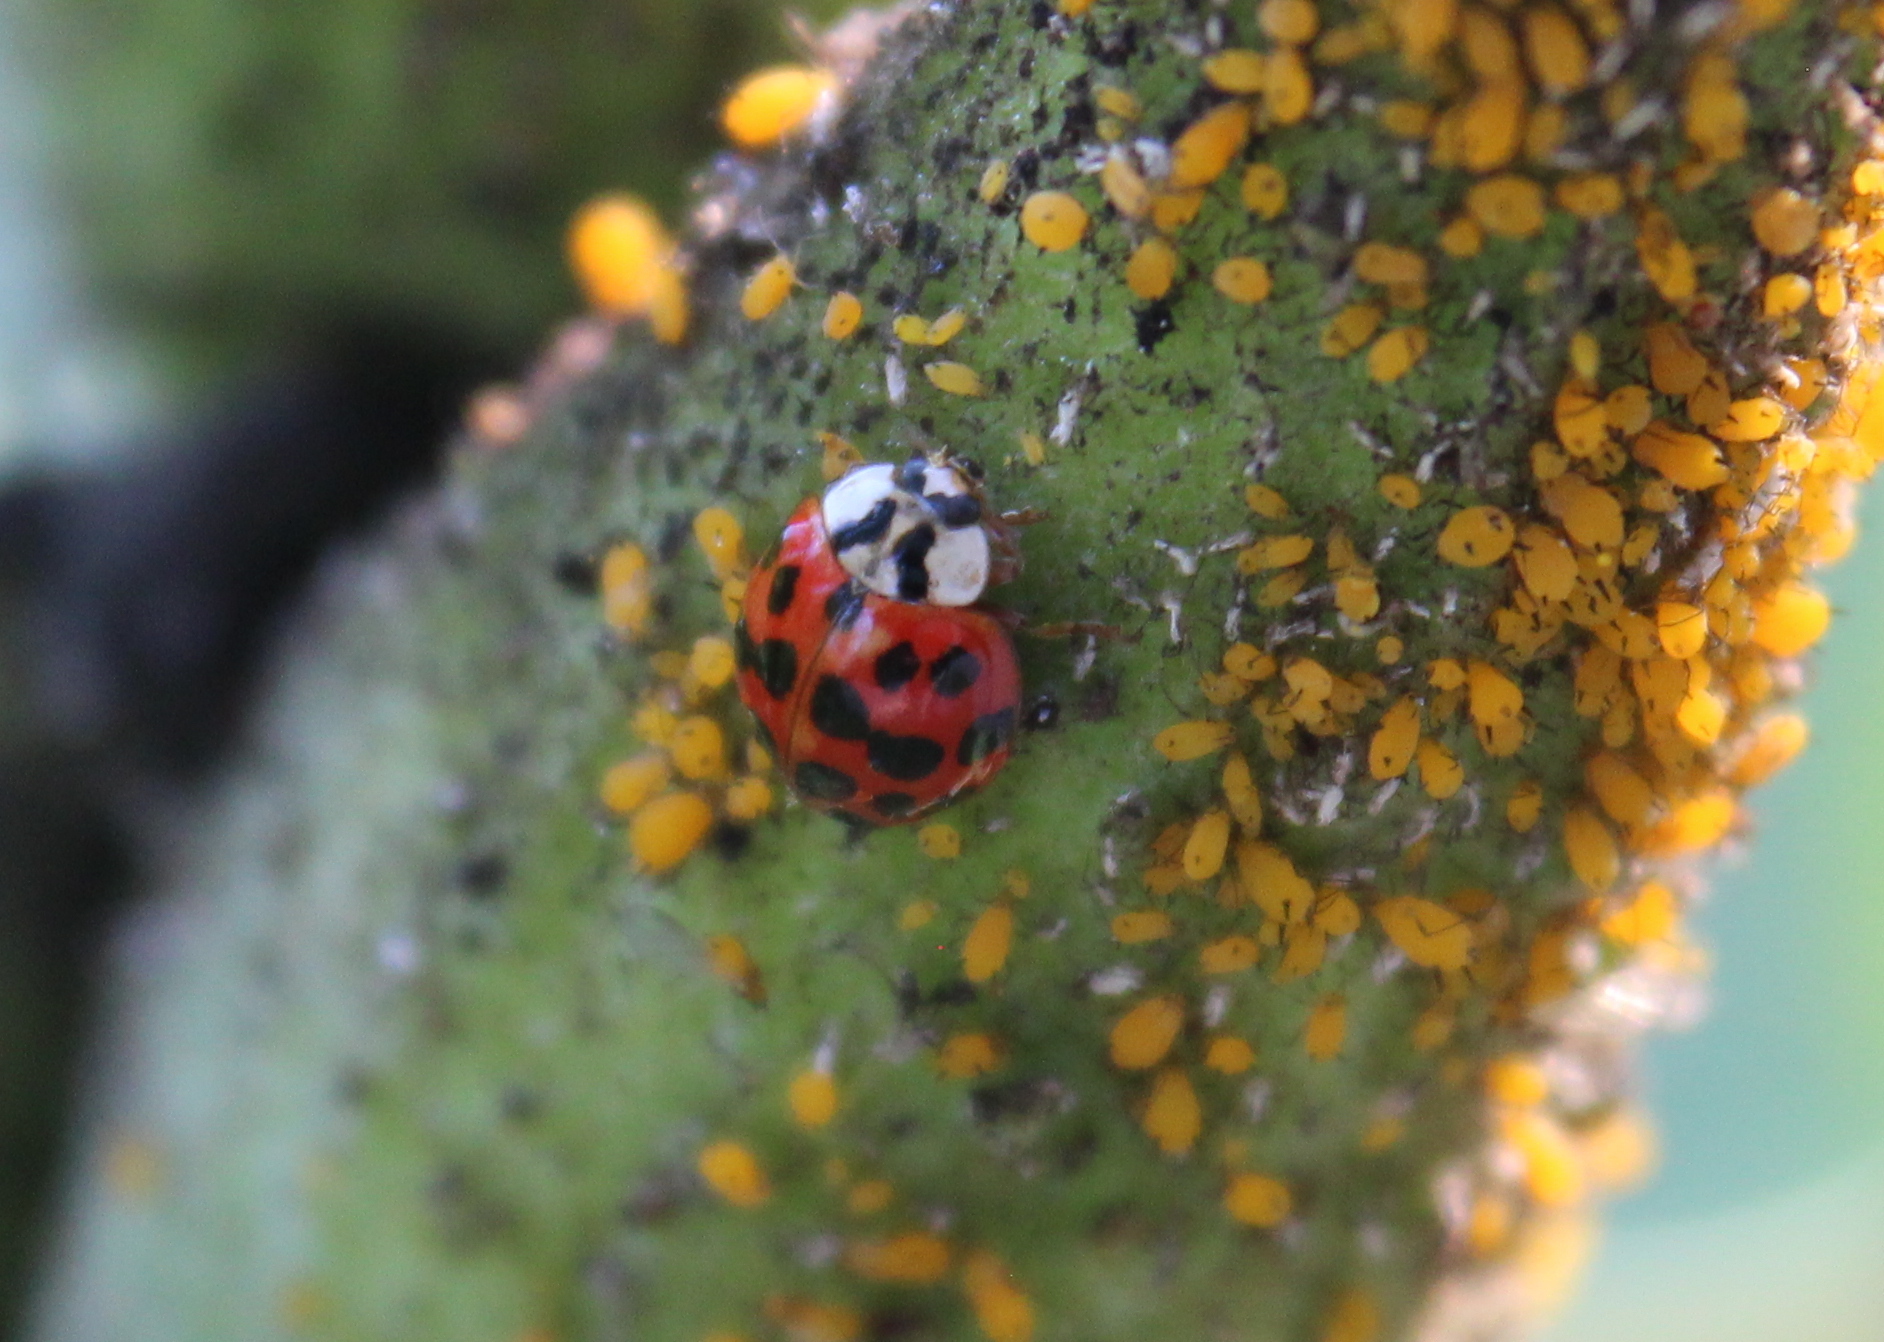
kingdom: Animalia
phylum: Arthropoda
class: Insecta
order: Coleoptera
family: Coccinellidae
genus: Harmonia
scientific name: Harmonia axyridis
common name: Harlequin ladybird
